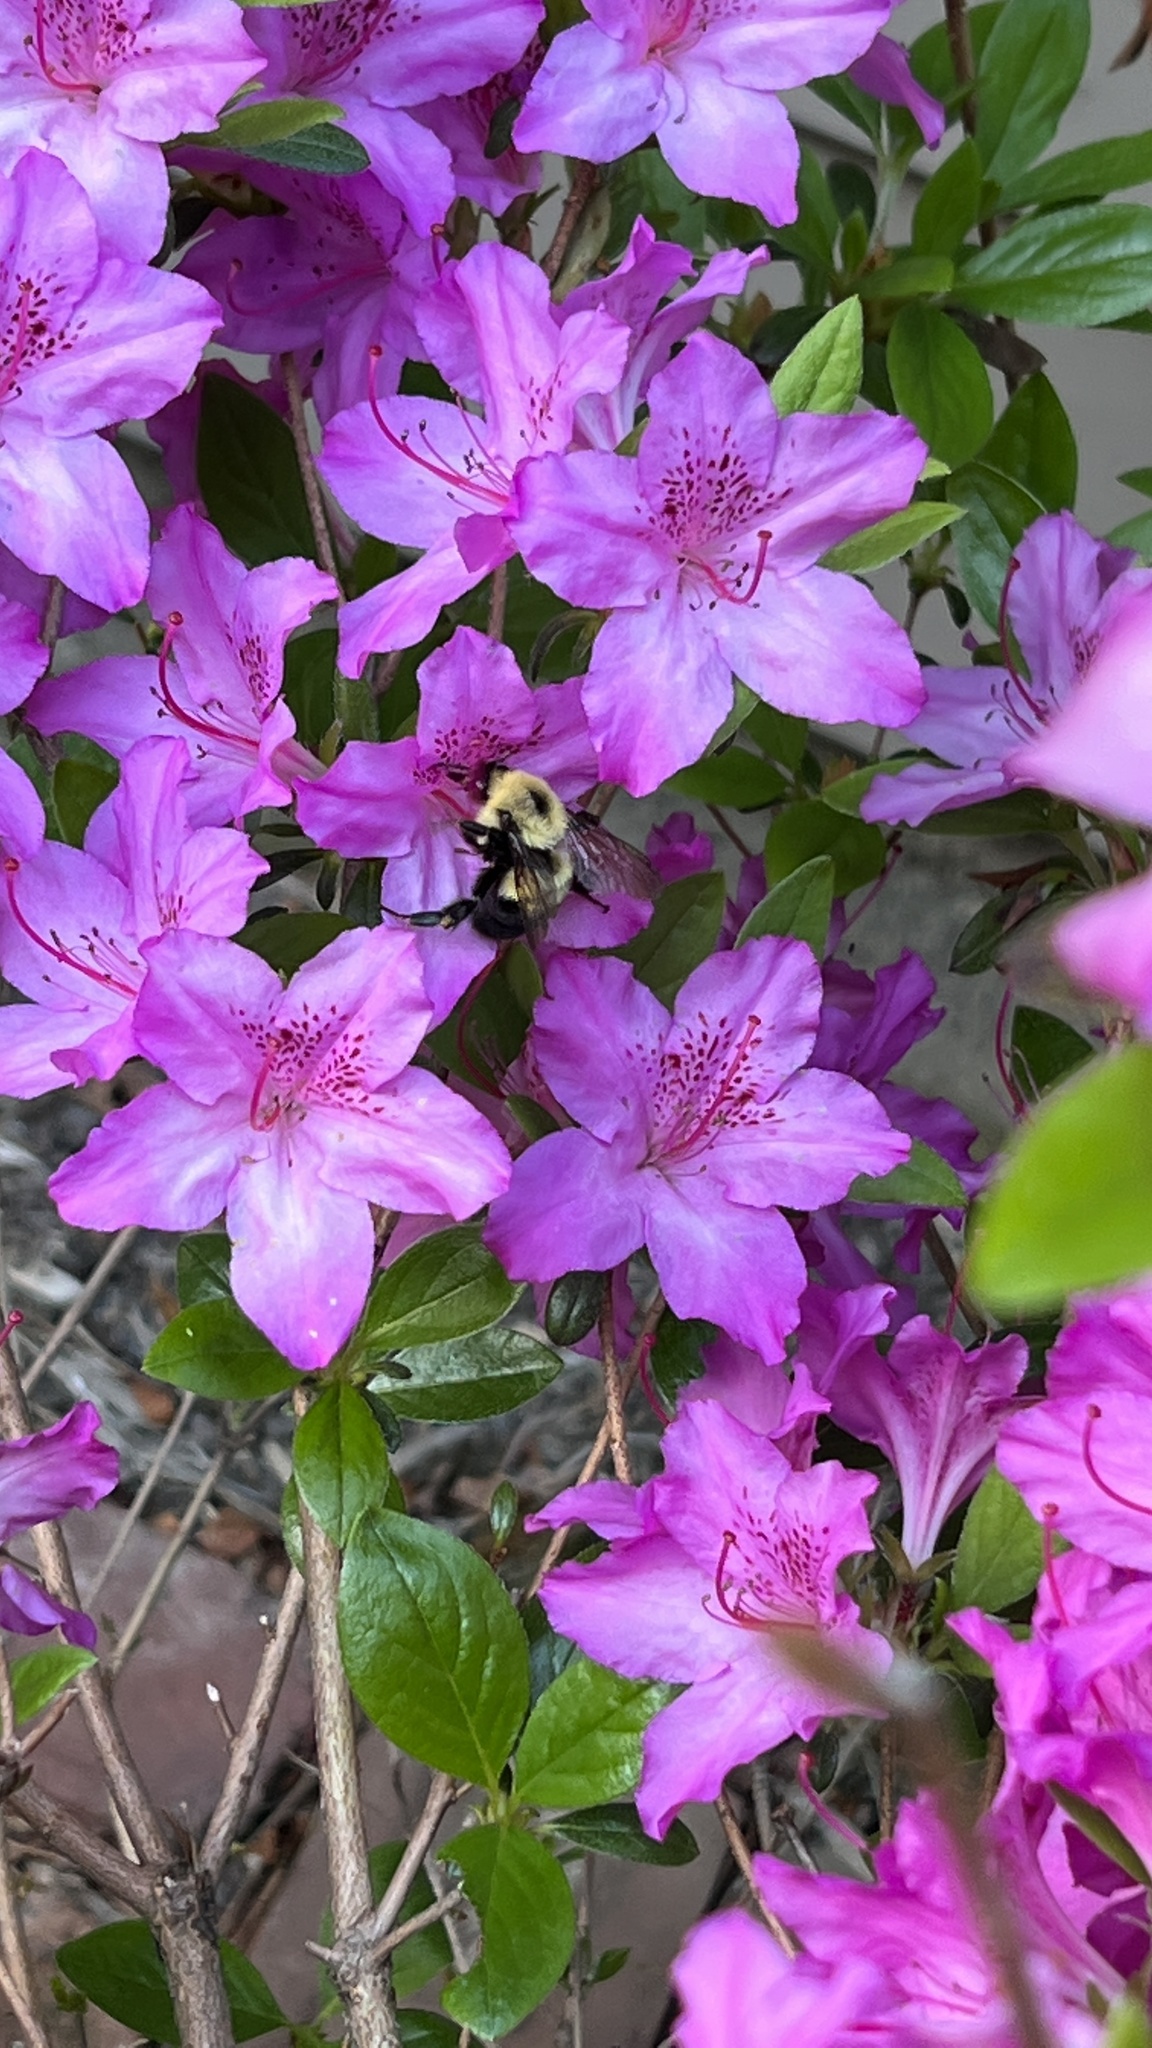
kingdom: Animalia
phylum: Arthropoda
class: Insecta
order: Hymenoptera
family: Apidae
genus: Bombus
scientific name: Bombus bimaculatus
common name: Two-spotted bumble bee
